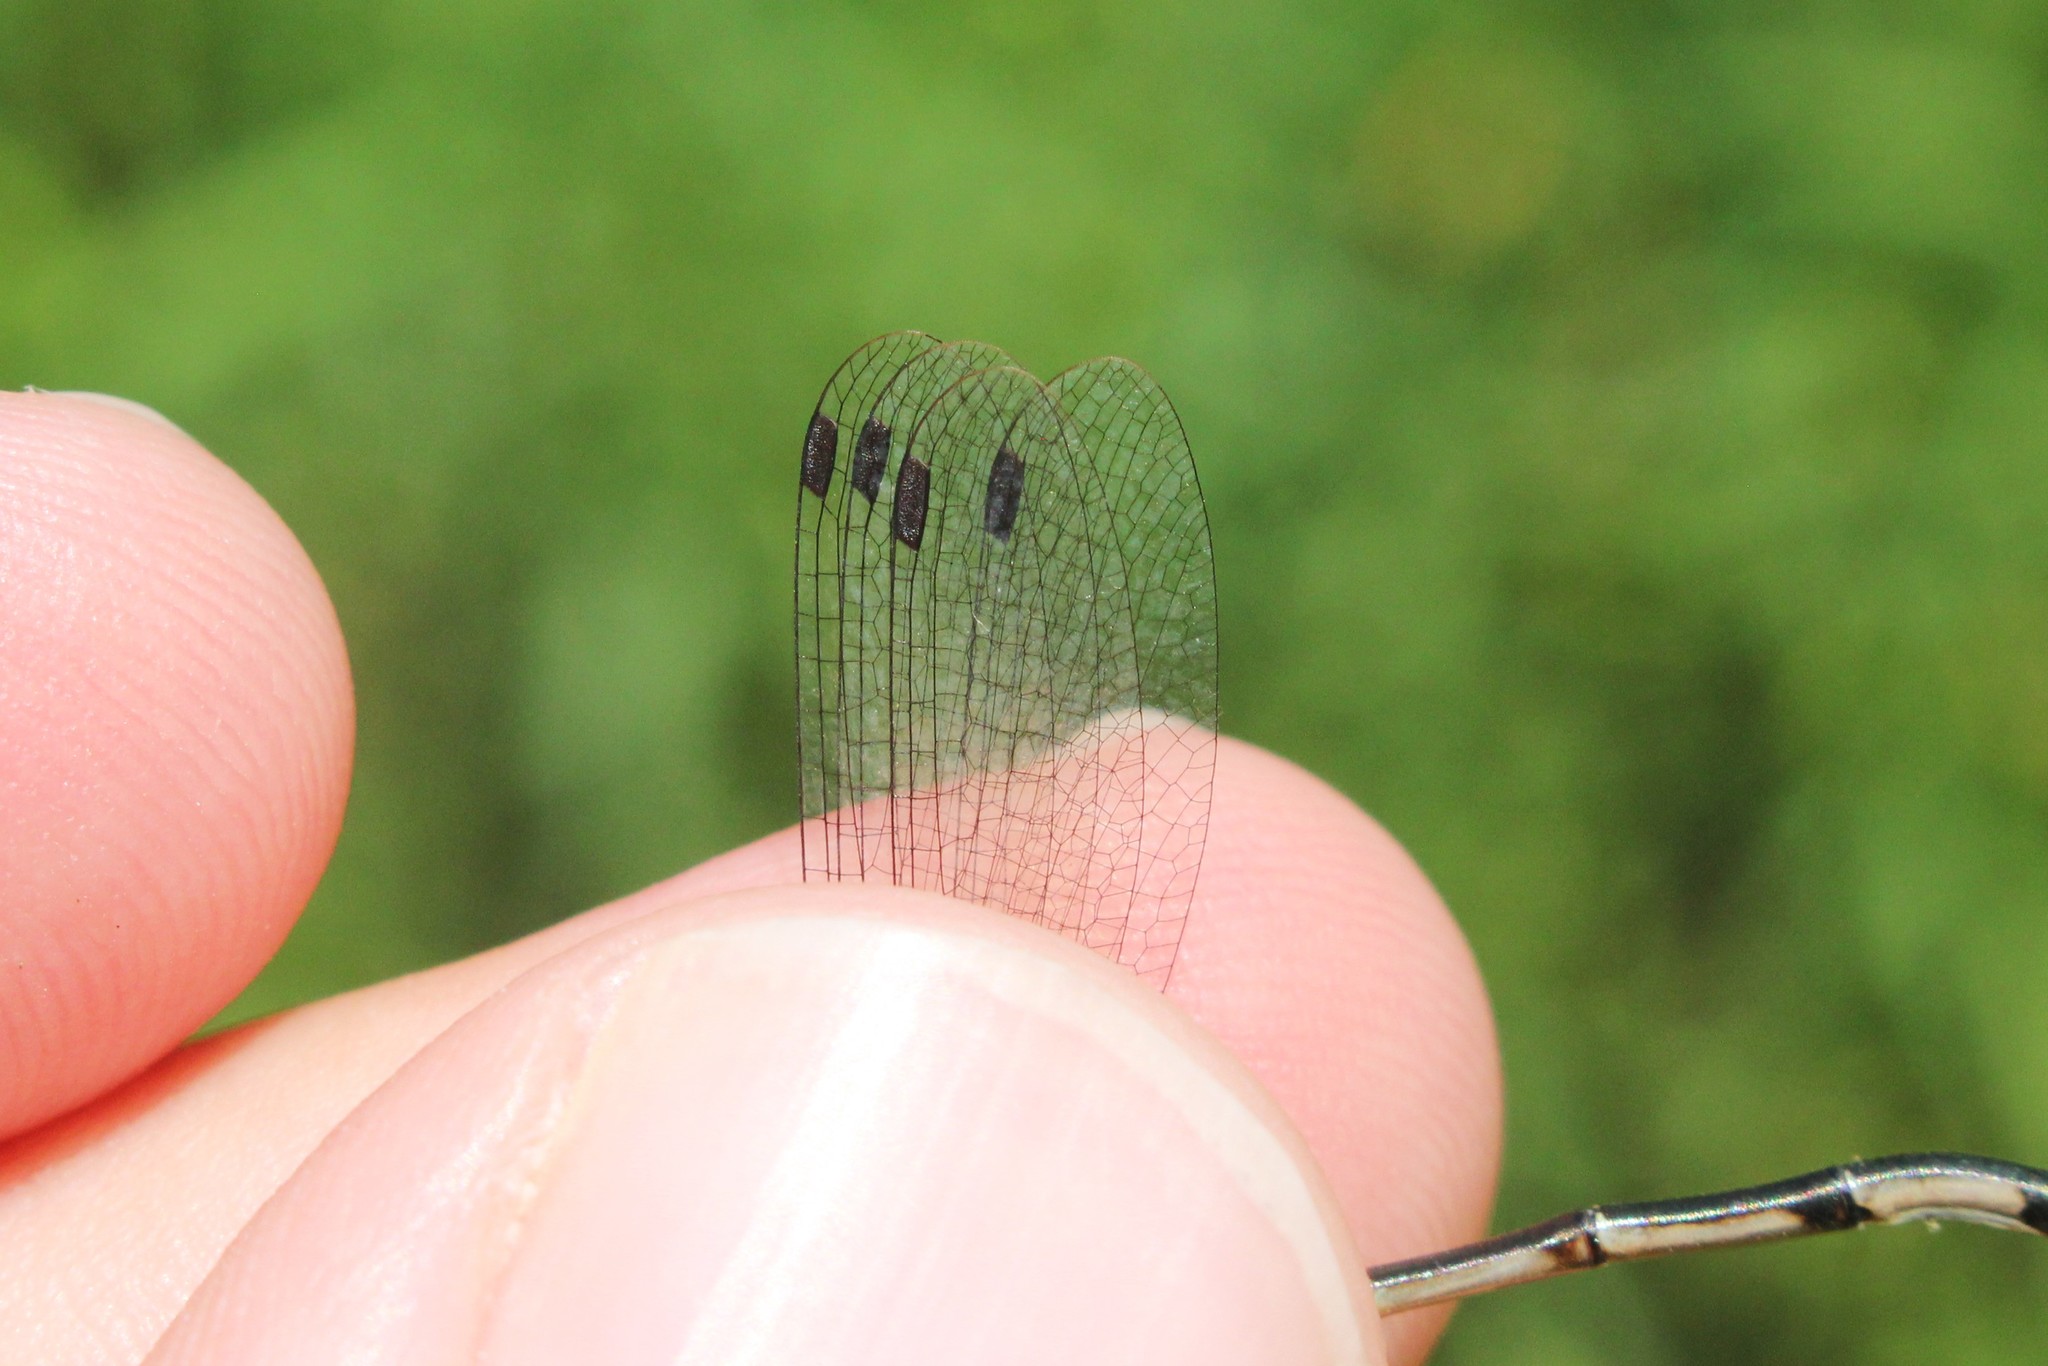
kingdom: Animalia
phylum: Arthropoda
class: Insecta
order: Odonata
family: Lestidae
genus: Lestes
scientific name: Lestes rectangularis
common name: Slender spreadwing
